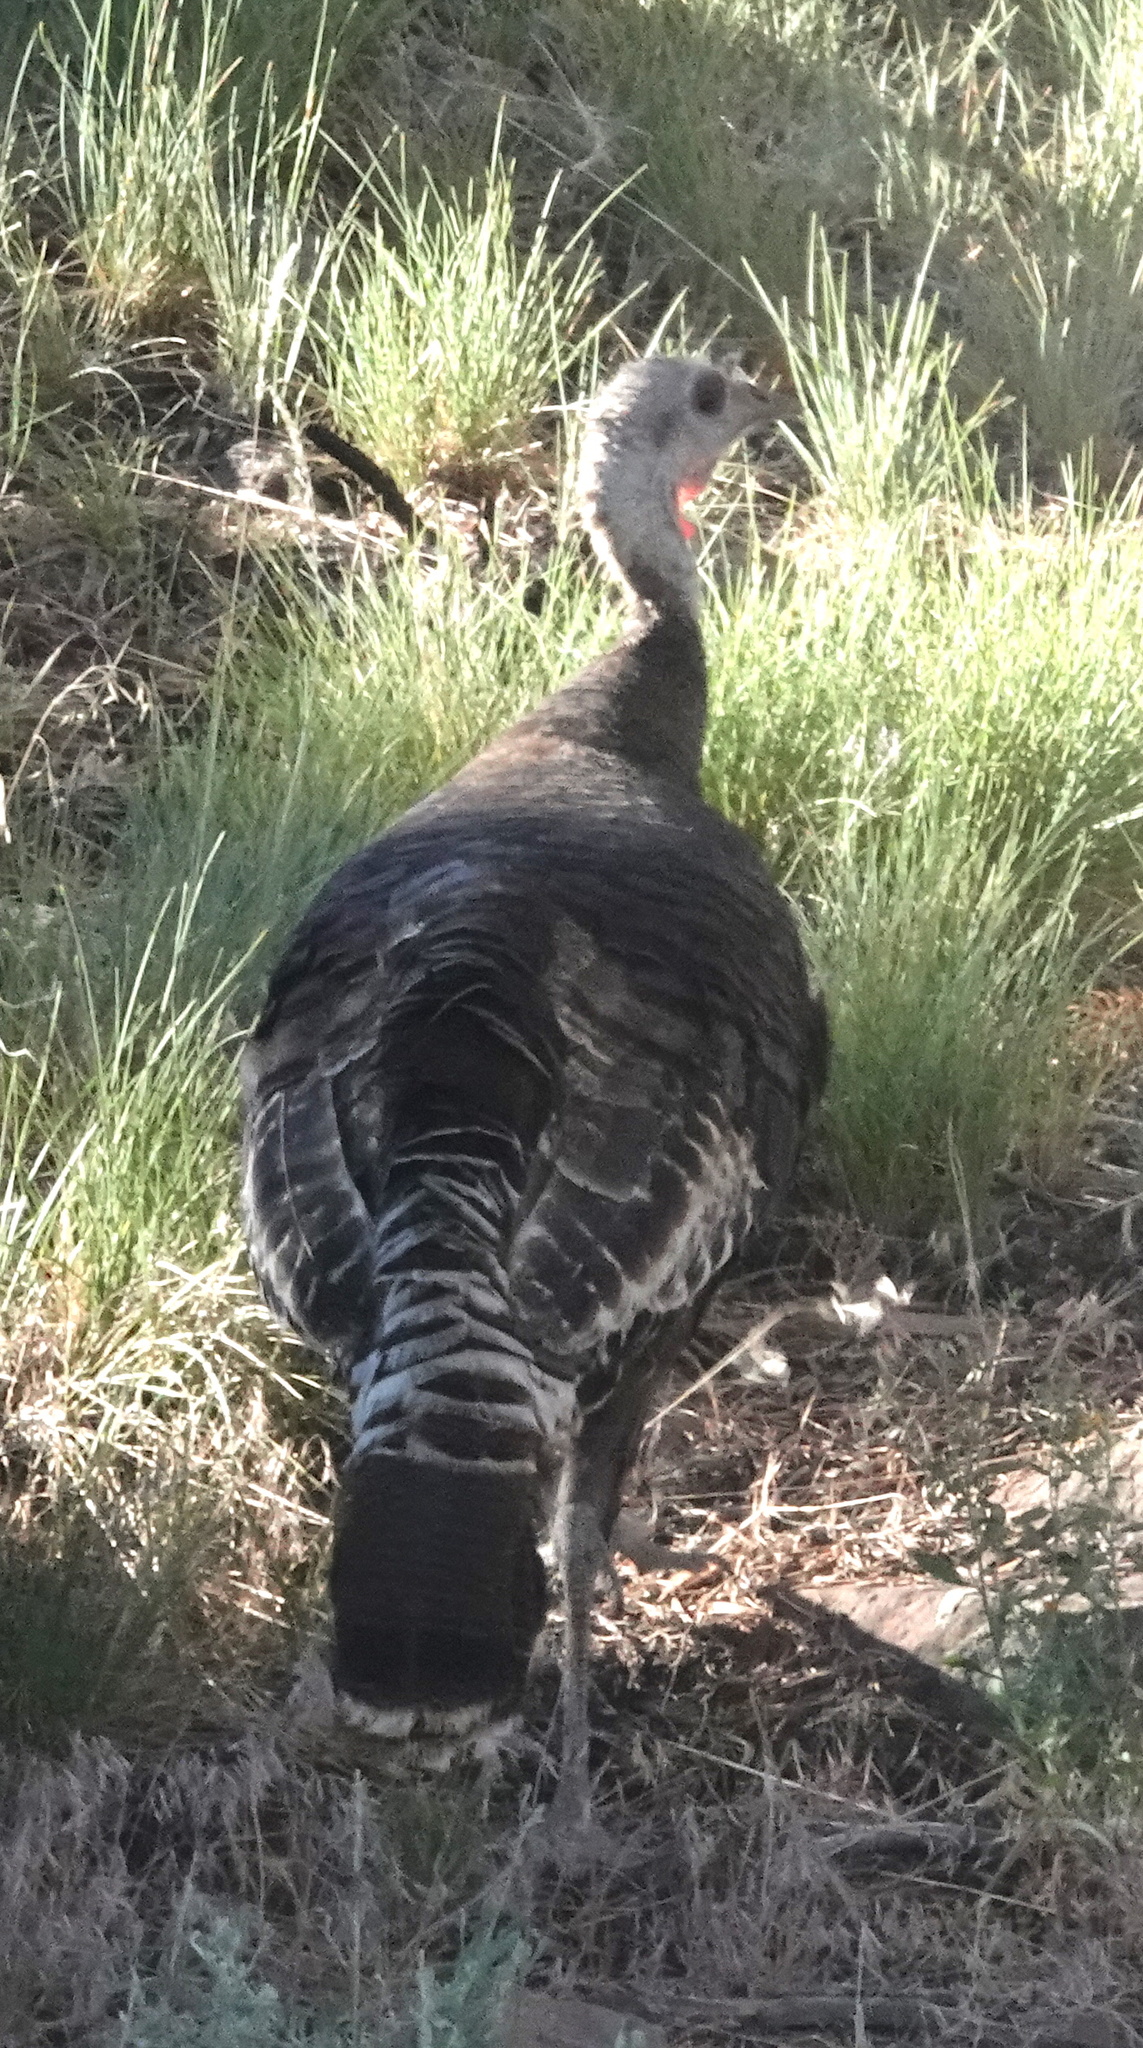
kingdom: Animalia
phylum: Chordata
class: Aves
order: Galliformes
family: Phasianidae
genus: Meleagris
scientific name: Meleagris gallopavo
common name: Wild turkey
